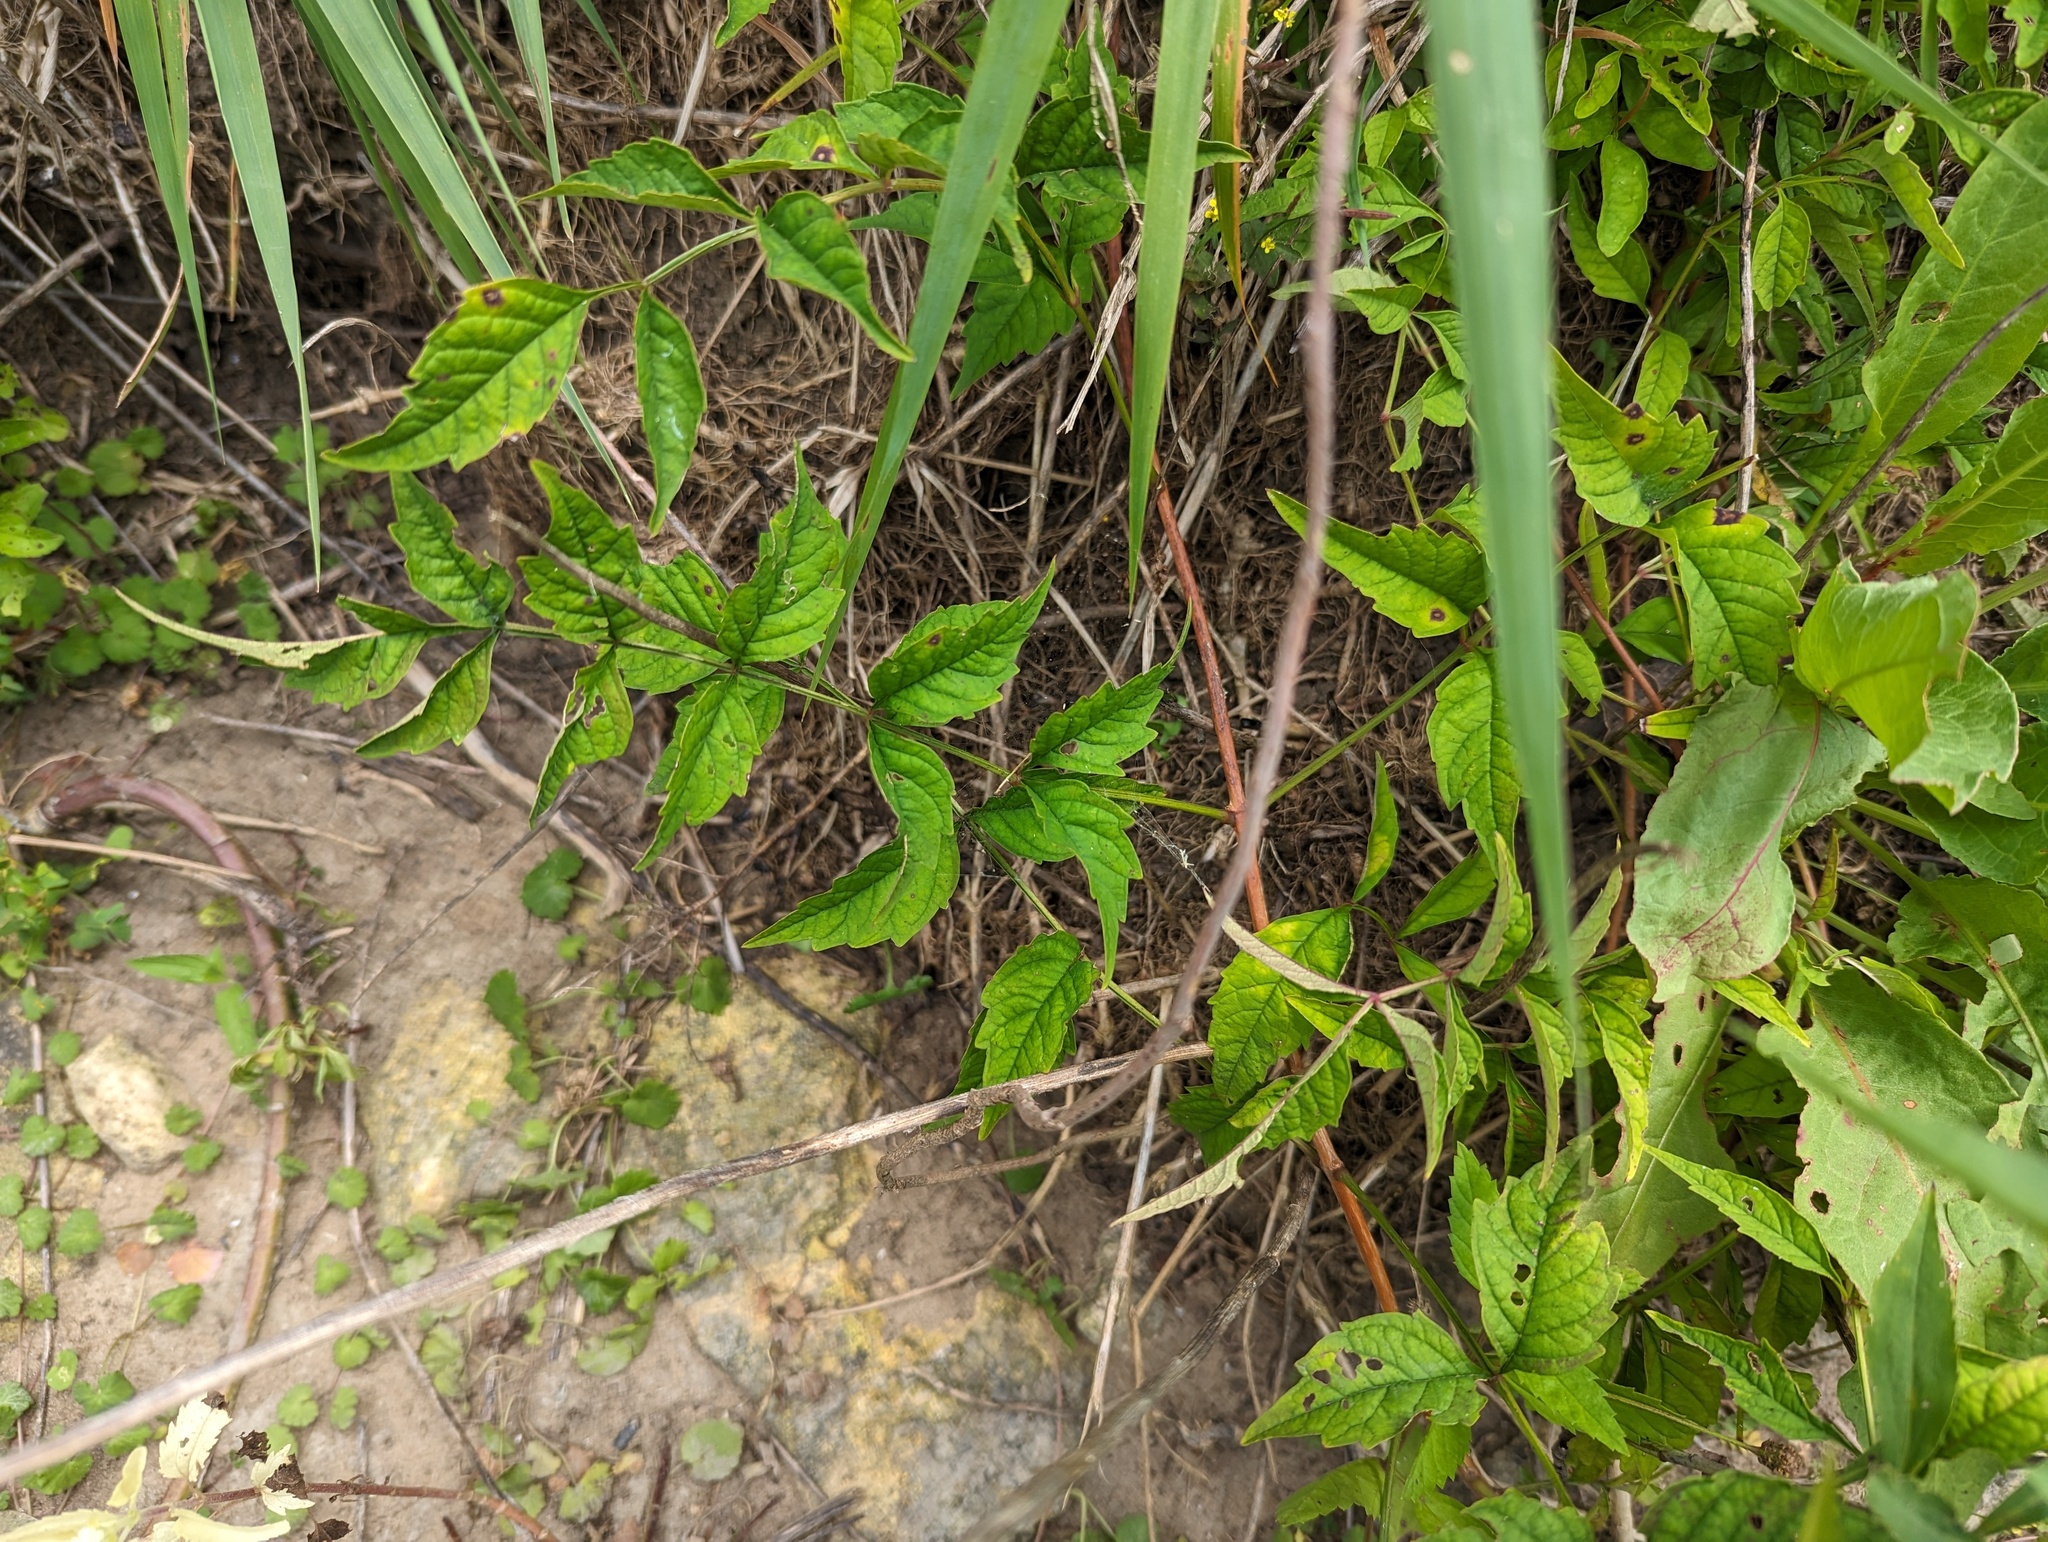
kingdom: Plantae
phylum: Tracheophyta
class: Magnoliopsida
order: Lamiales
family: Bignoniaceae
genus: Campsis
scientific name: Campsis radicans
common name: Trumpet-creeper
